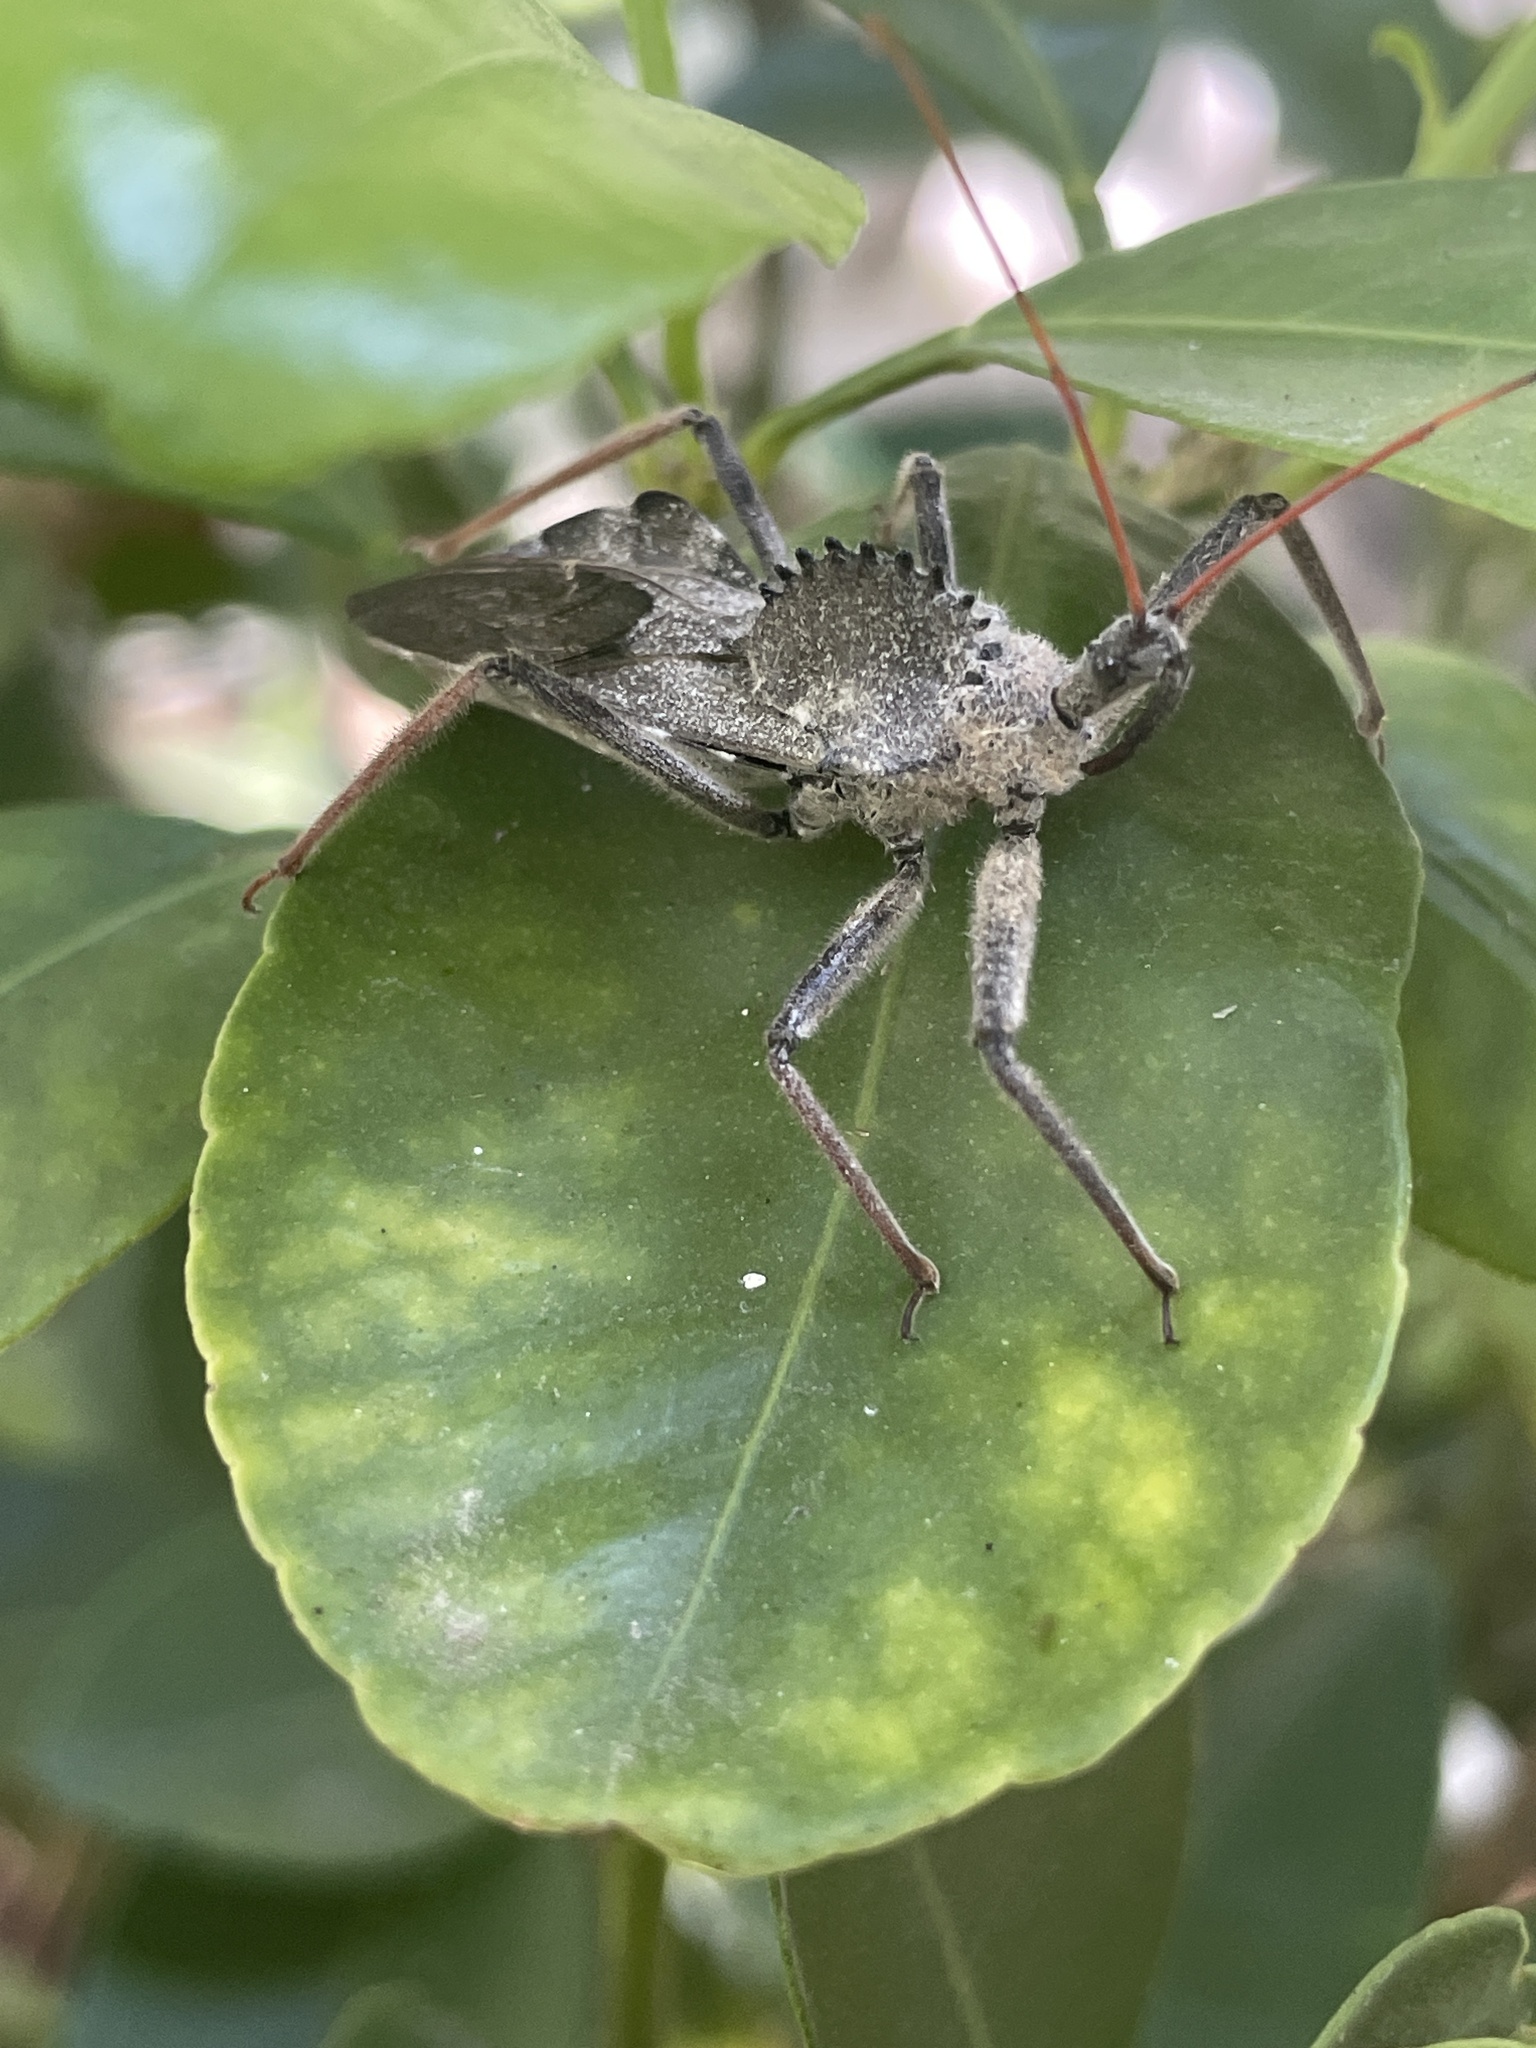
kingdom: Animalia
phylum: Arthropoda
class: Insecta
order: Hemiptera
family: Reduviidae
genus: Arilus
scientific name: Arilus cristatus
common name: North american wheel bug
